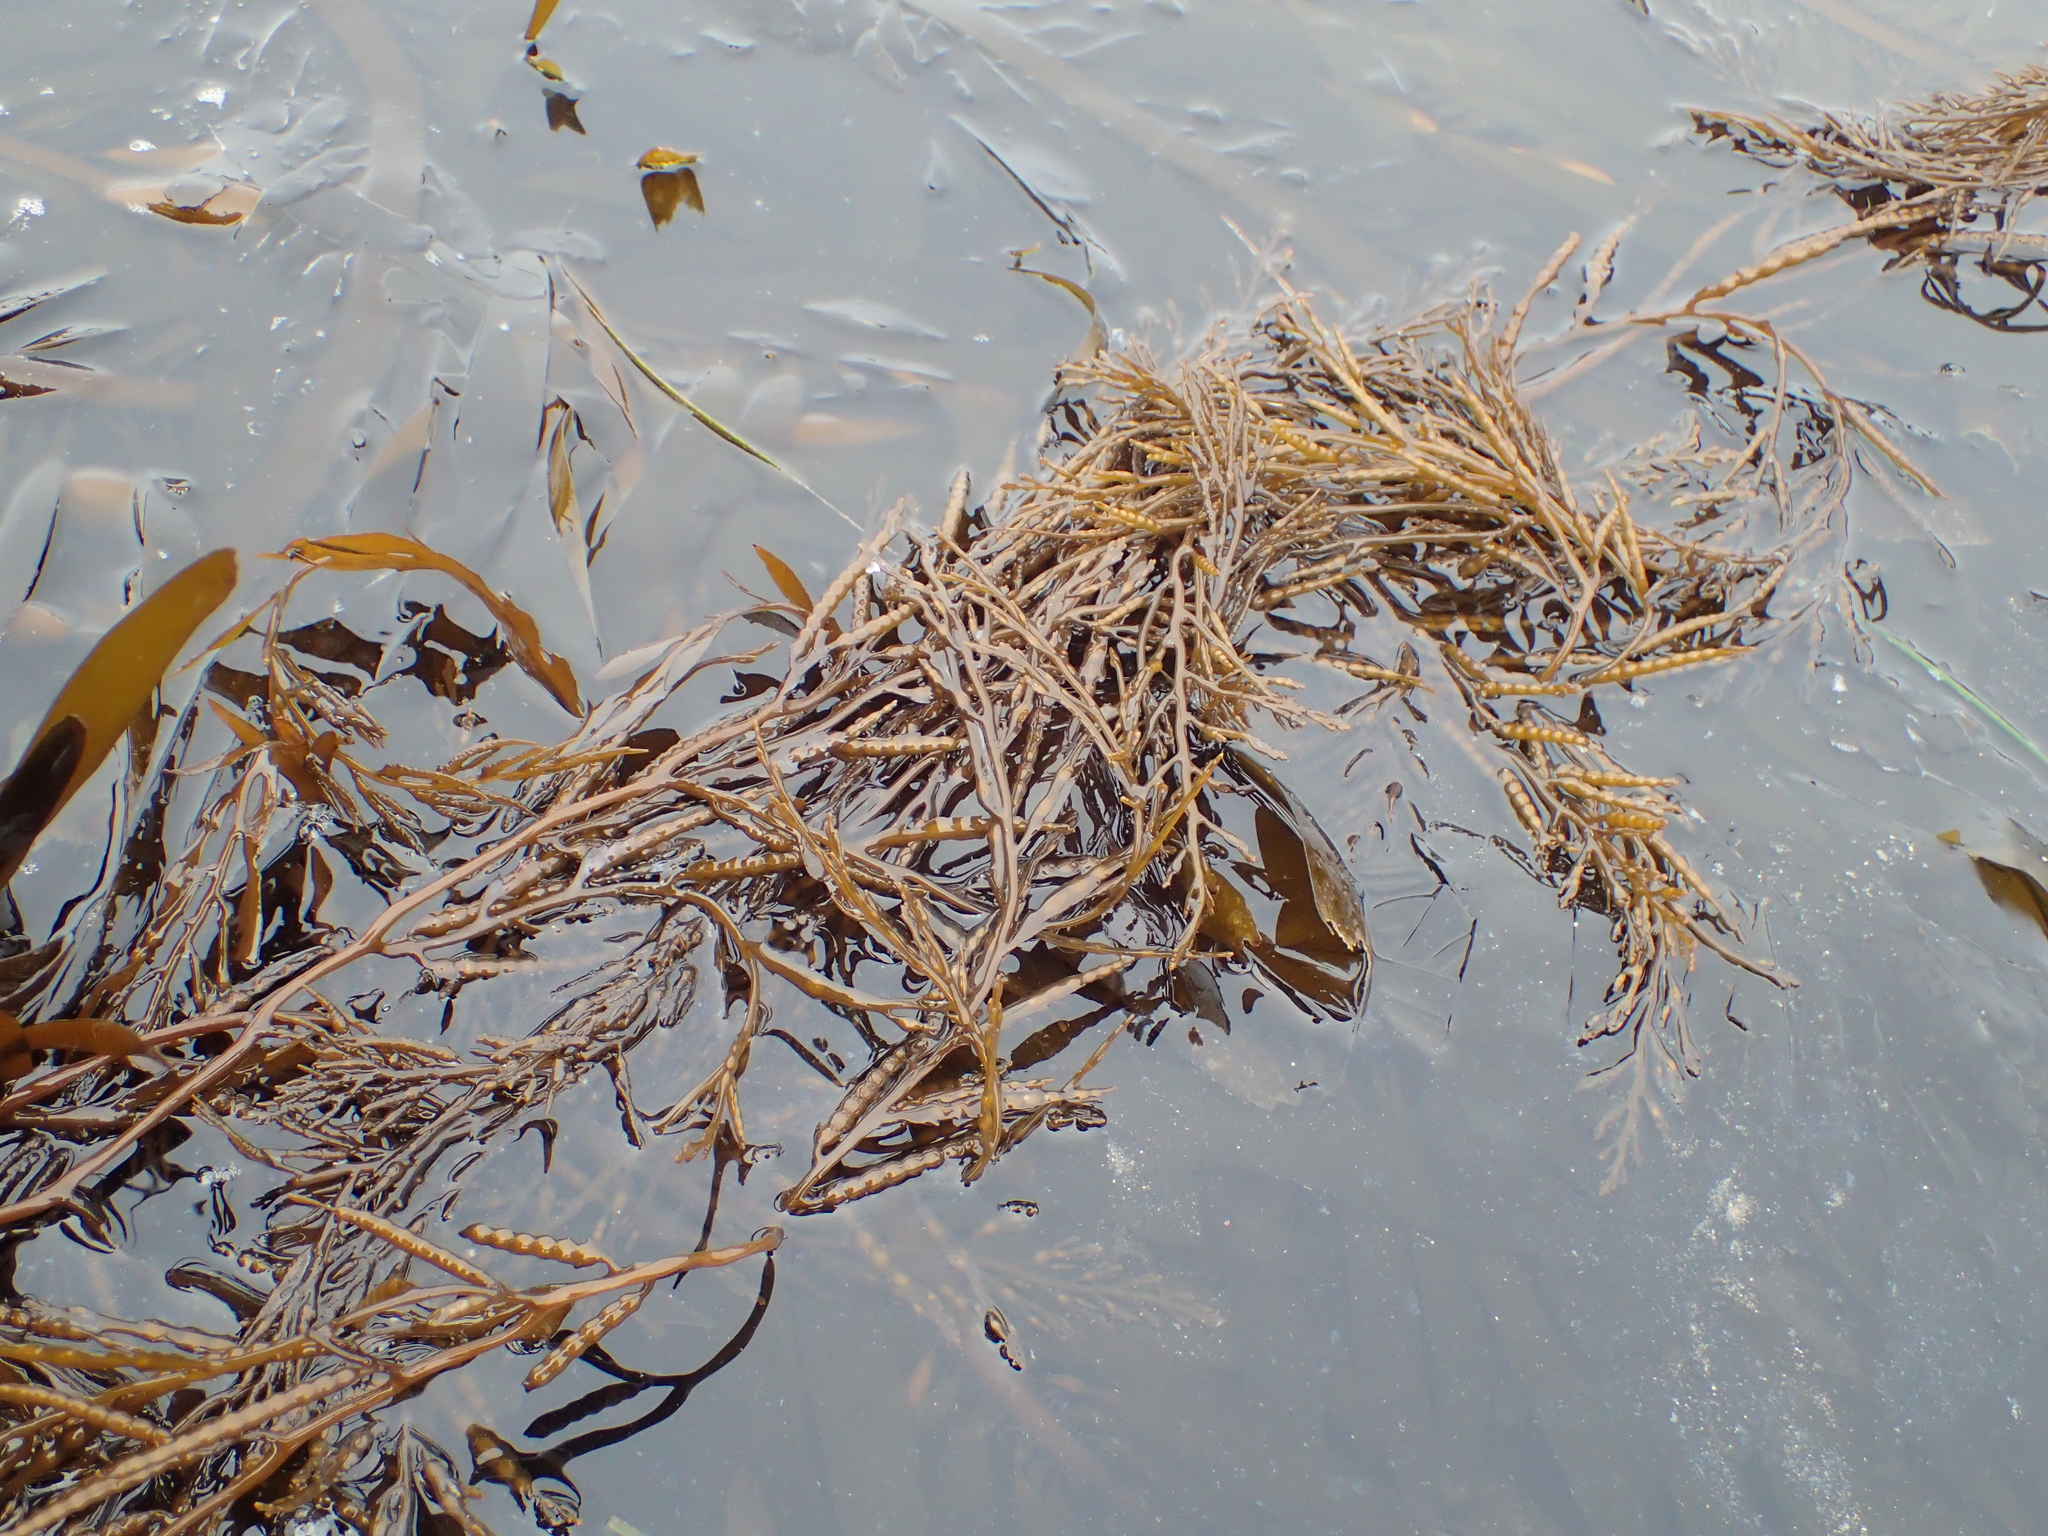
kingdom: Chromista
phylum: Ochrophyta
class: Phaeophyceae
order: Fucales
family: Sargassaceae
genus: Stephanocystis
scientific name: Stephanocystis
